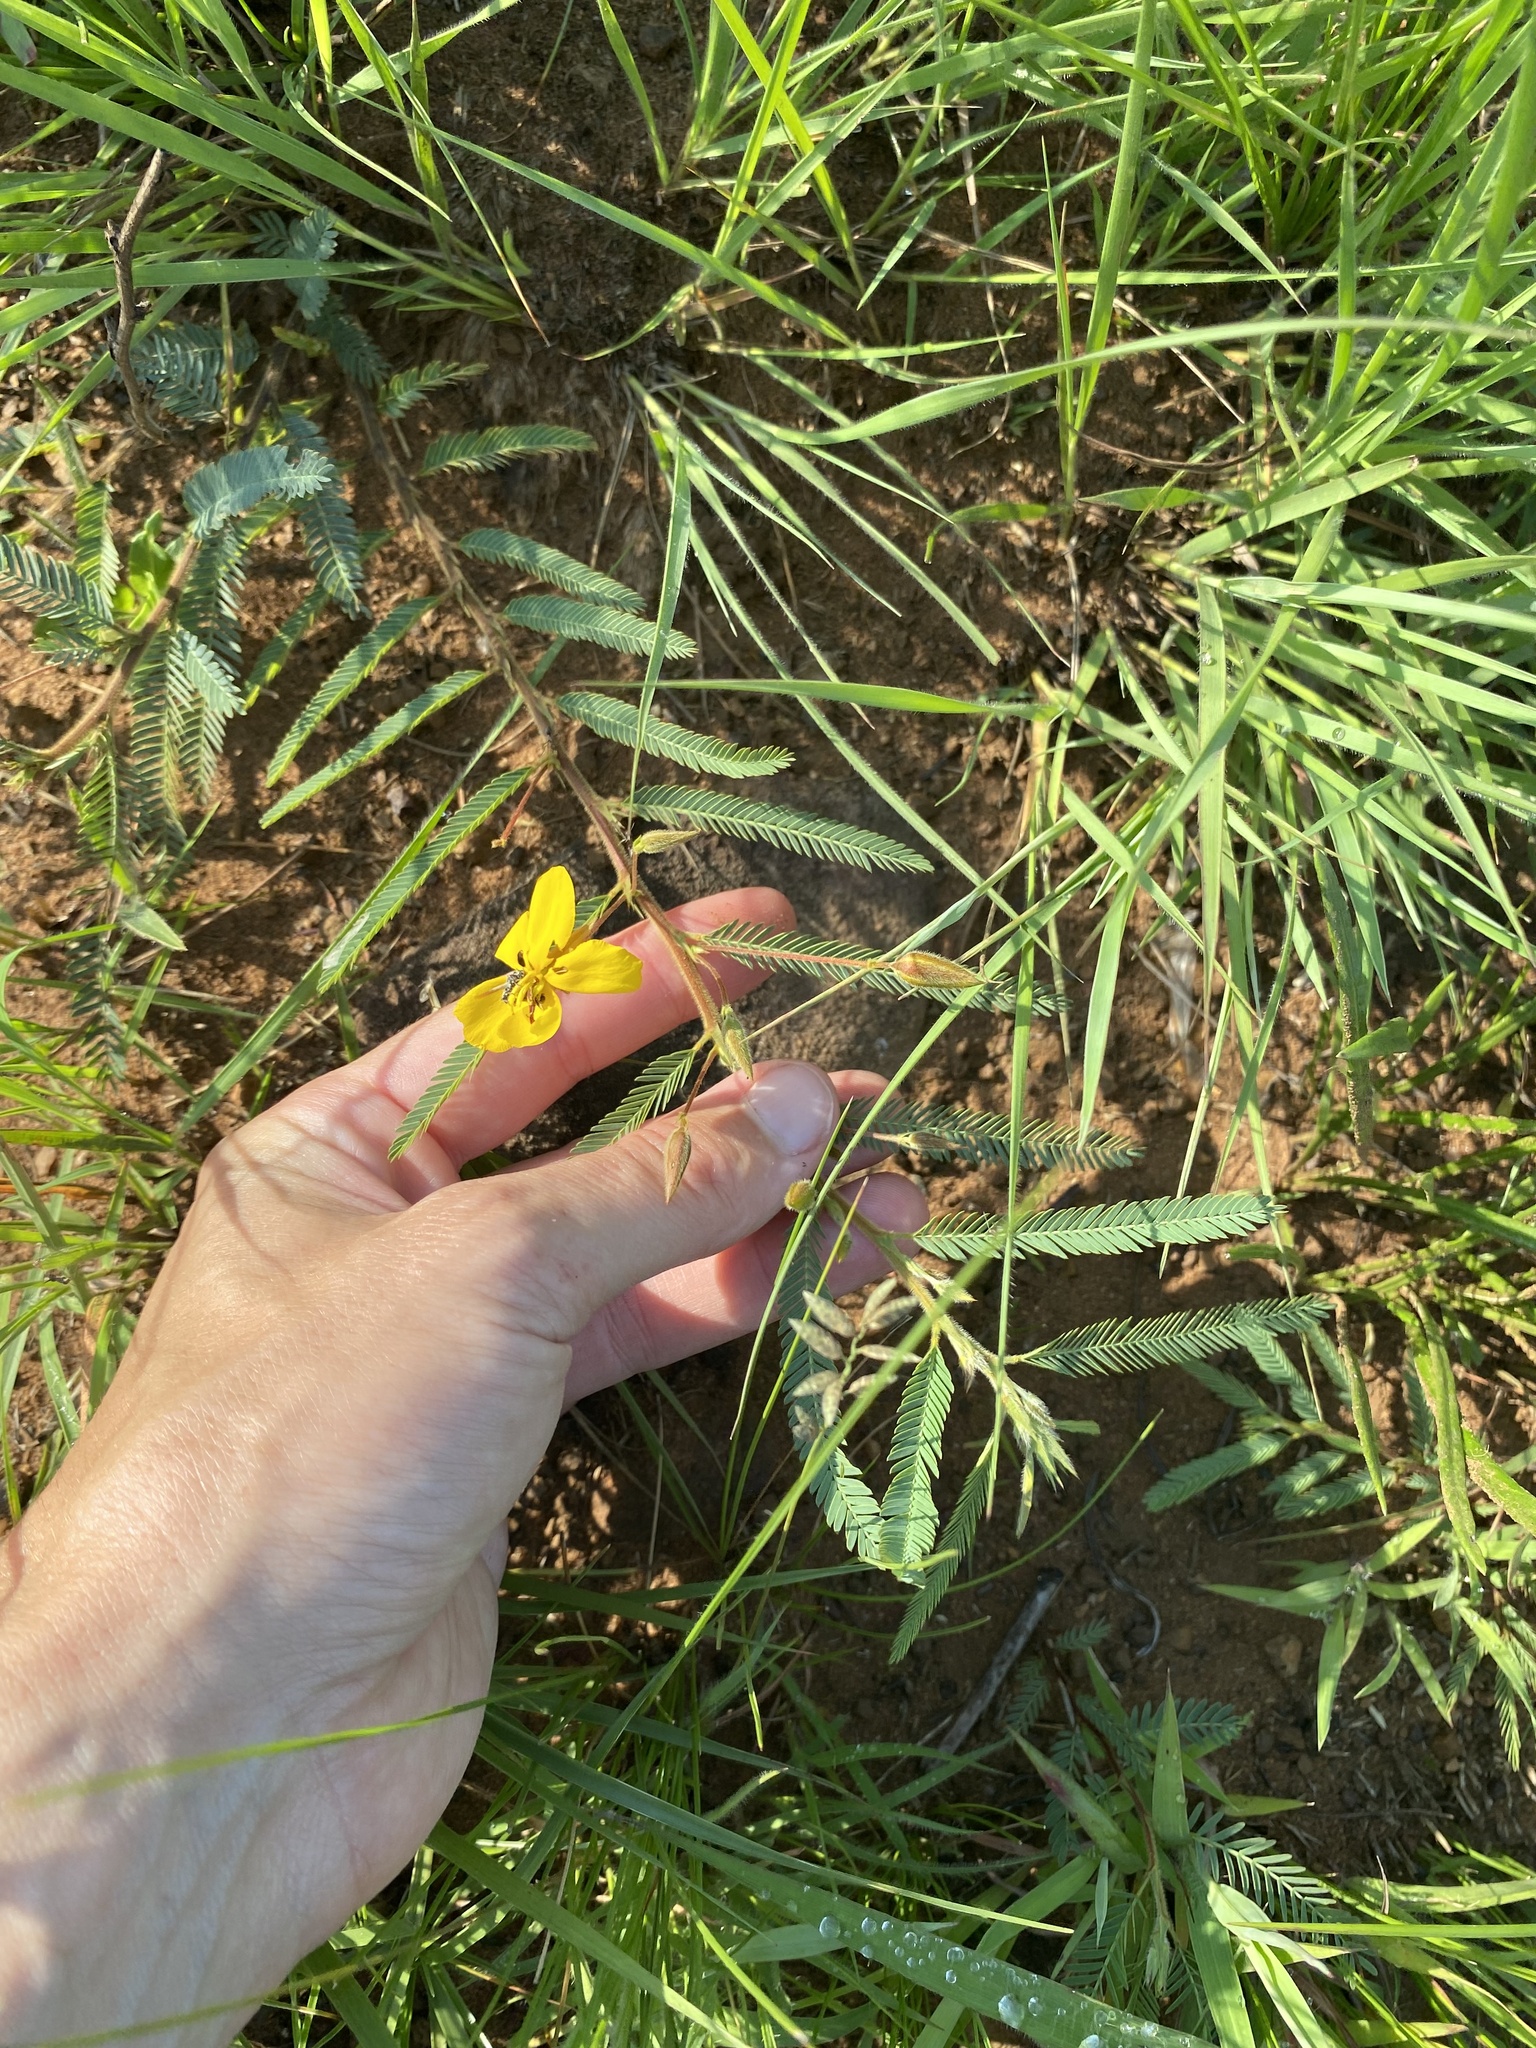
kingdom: Plantae
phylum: Tracheophyta
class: Magnoliopsida
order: Fabales
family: Fabaceae
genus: Chamaecrista
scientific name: Chamaecrista mimosoides
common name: Fish-bone cassia
